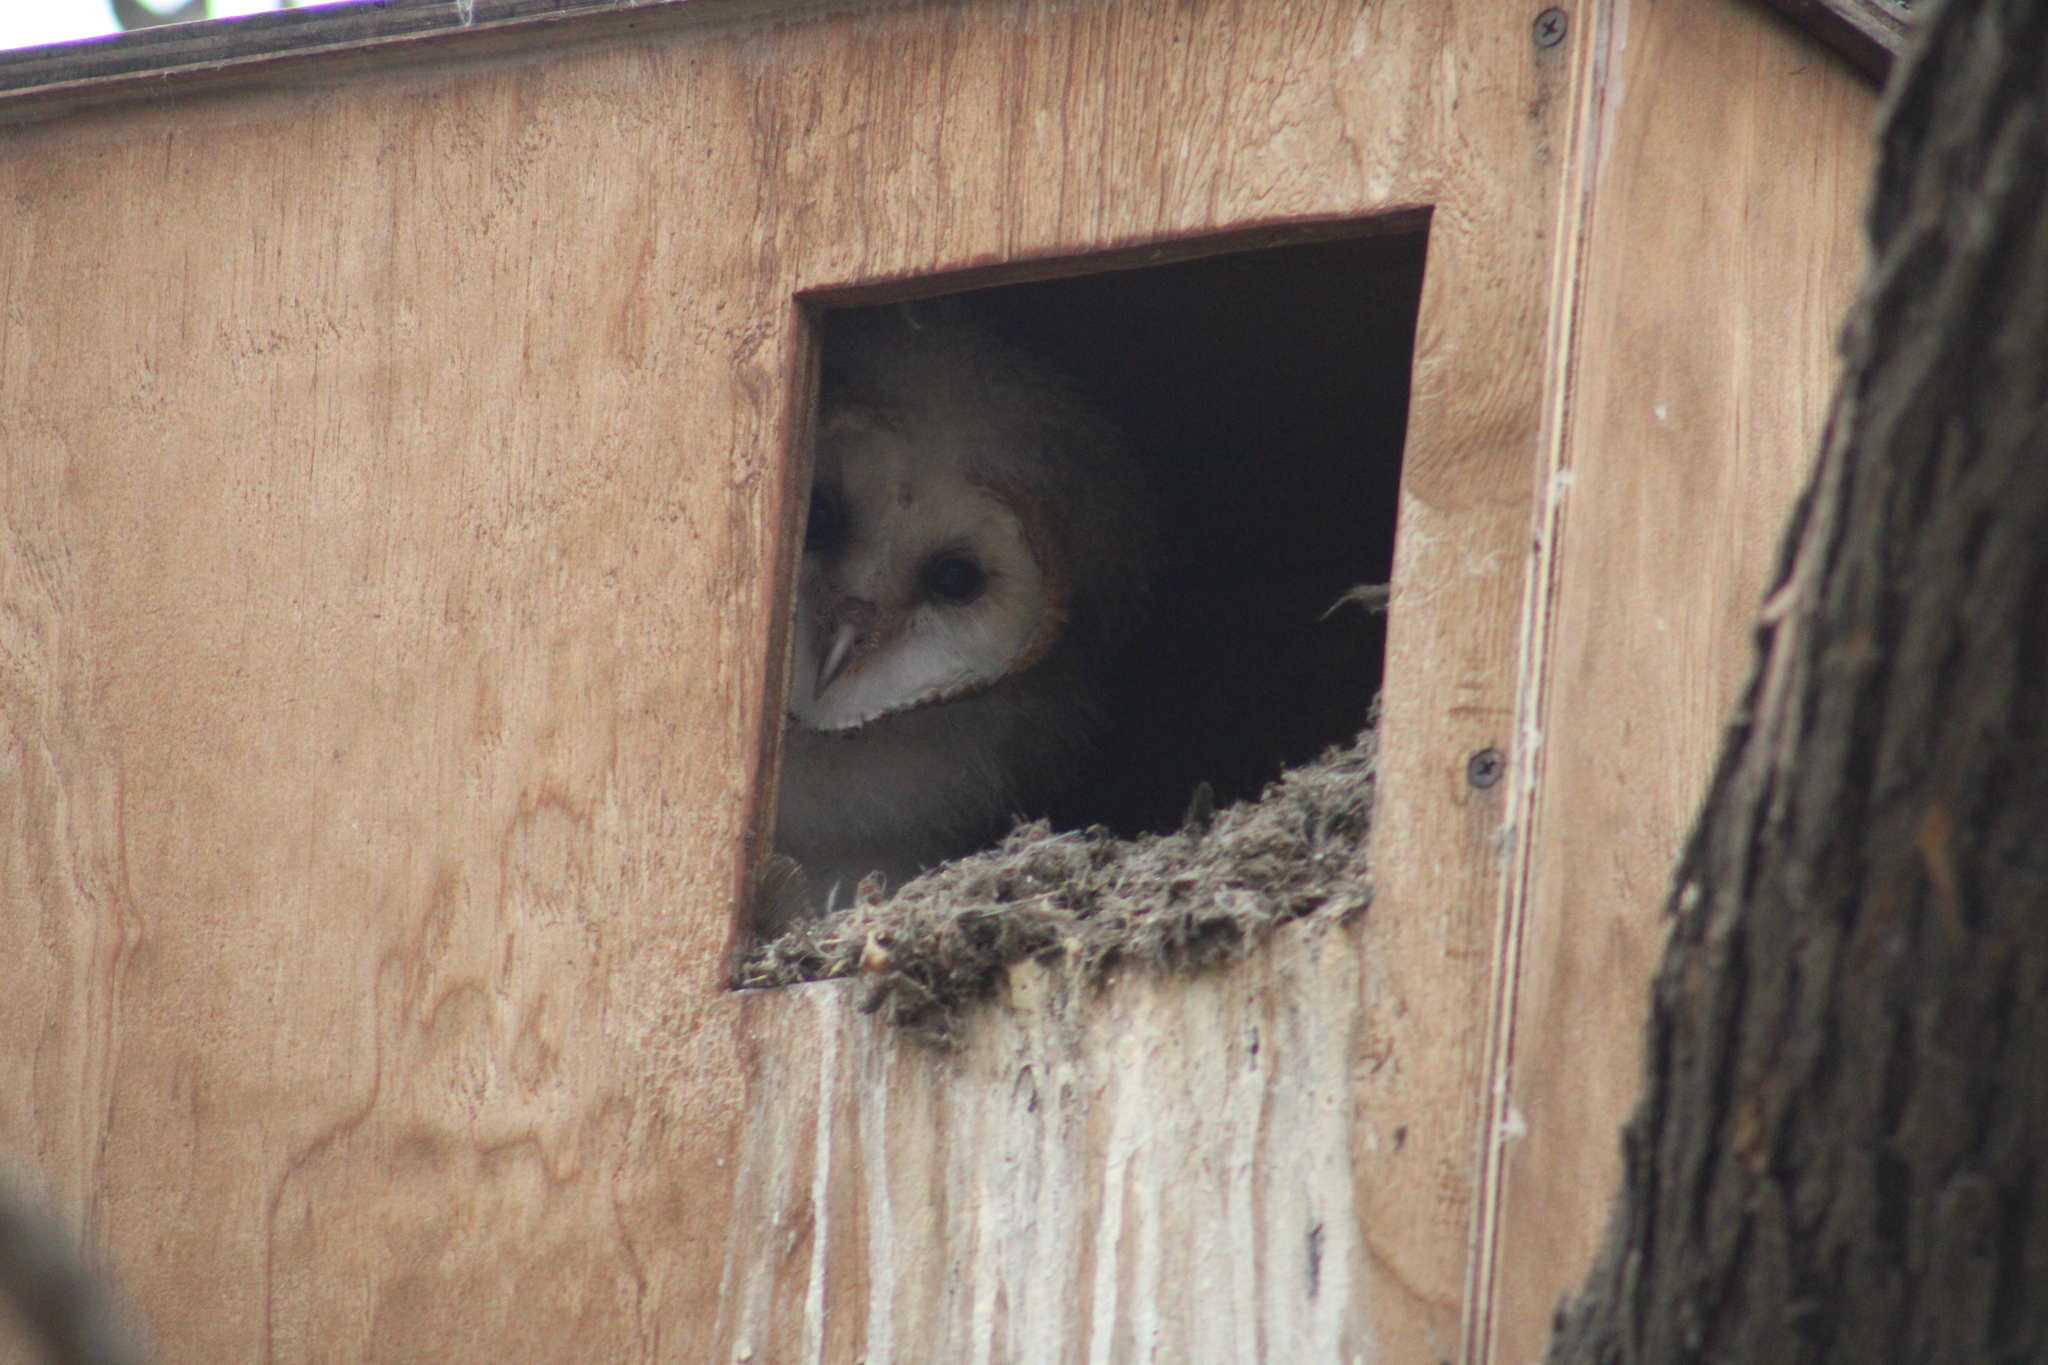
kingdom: Animalia
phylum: Chordata
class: Aves
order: Strigiformes
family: Tytonidae
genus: Tyto
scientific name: Tyto alba
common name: Barn owl
